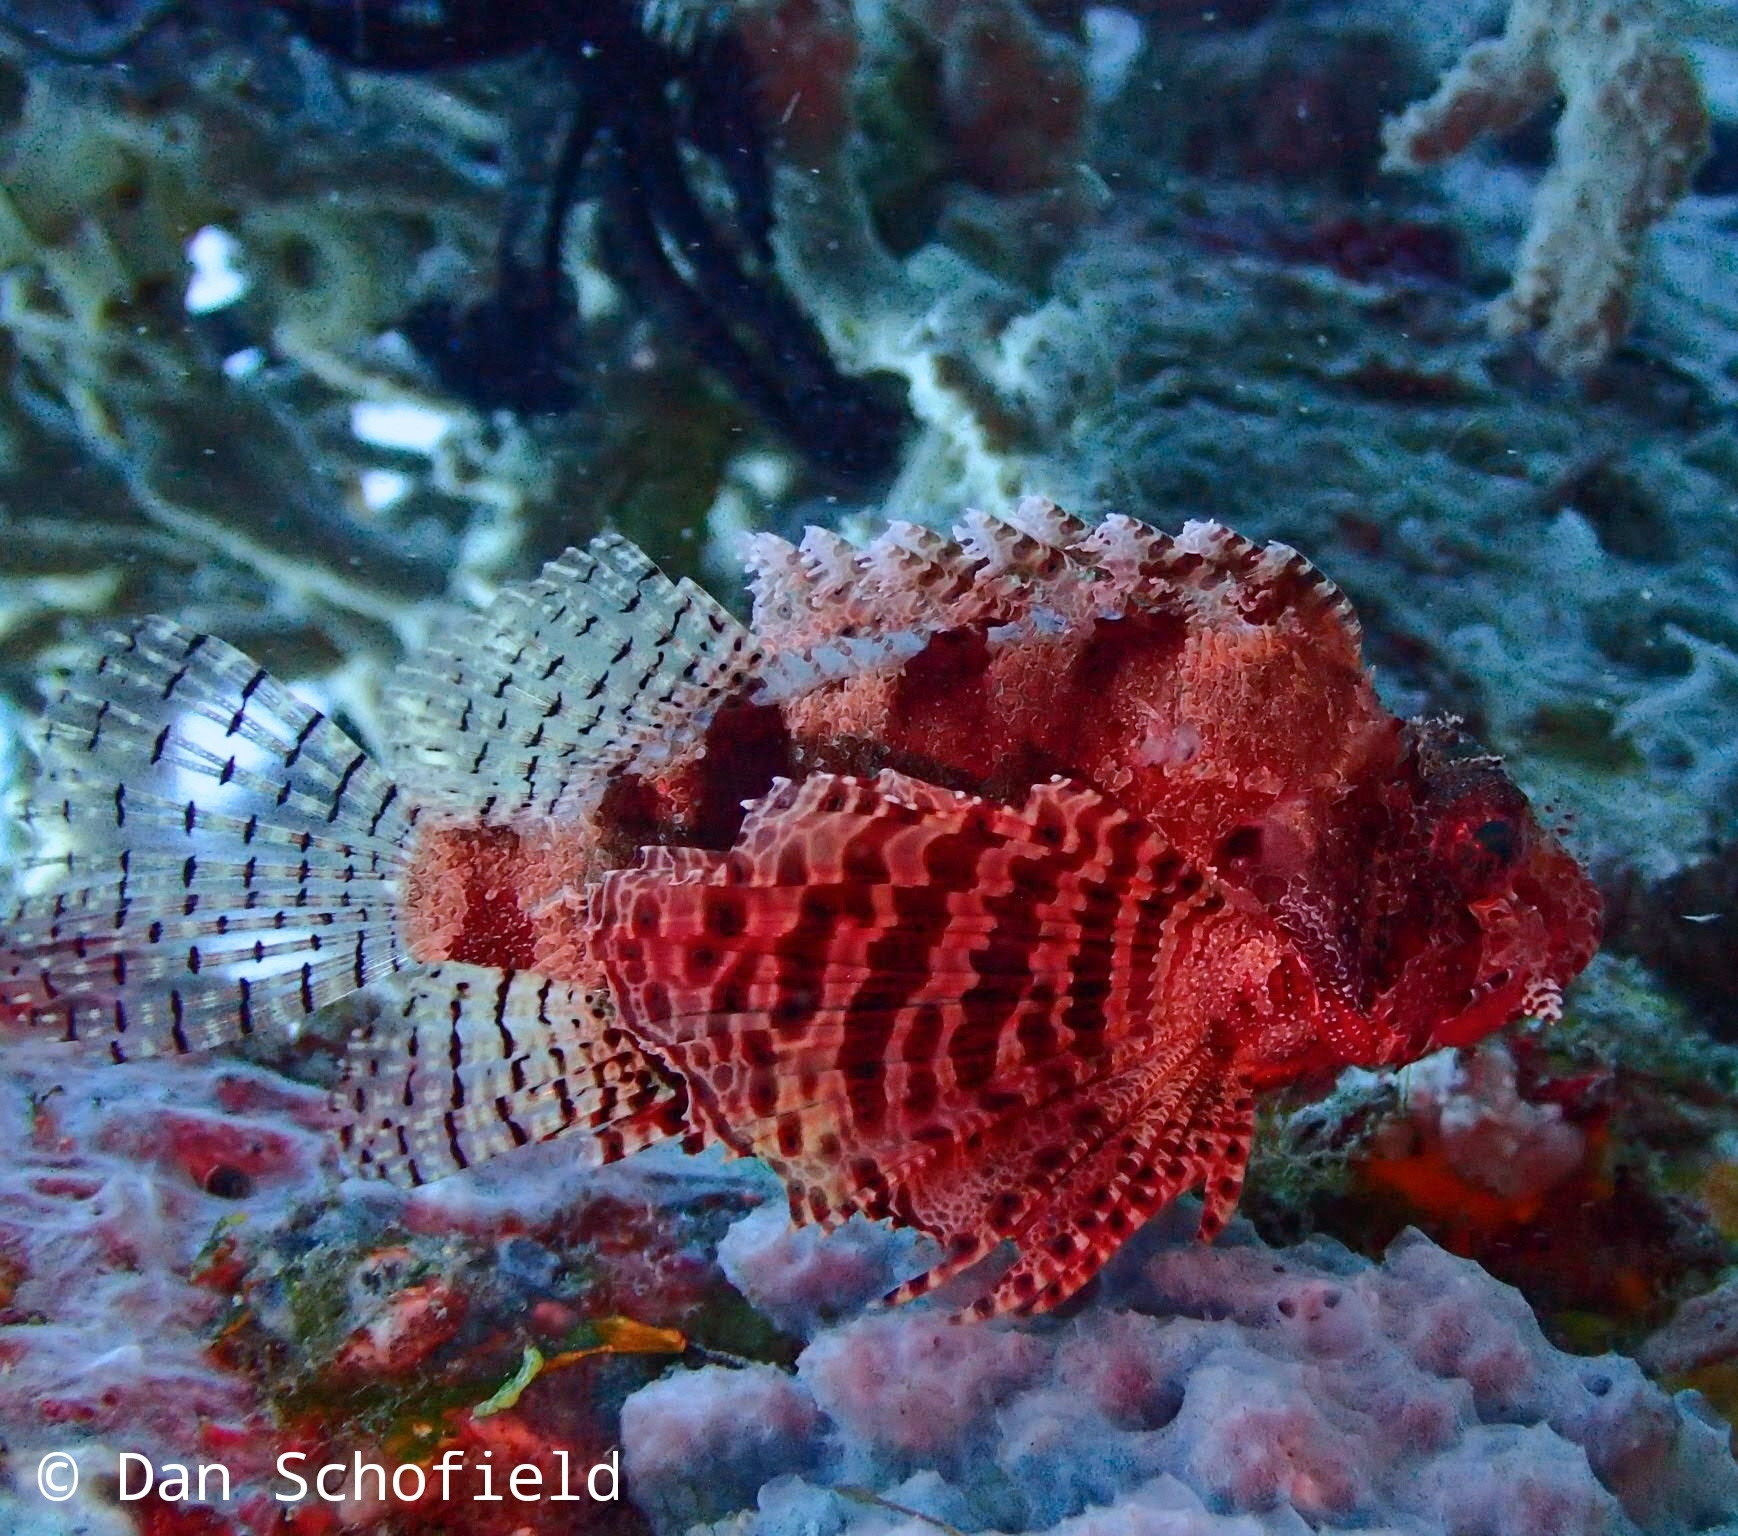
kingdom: Animalia
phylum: Chordata
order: Scorpaeniformes
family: Scorpaenidae
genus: Dendrochirus
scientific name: Dendrochirus brachypterus
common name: Shortfin turkeyfish
